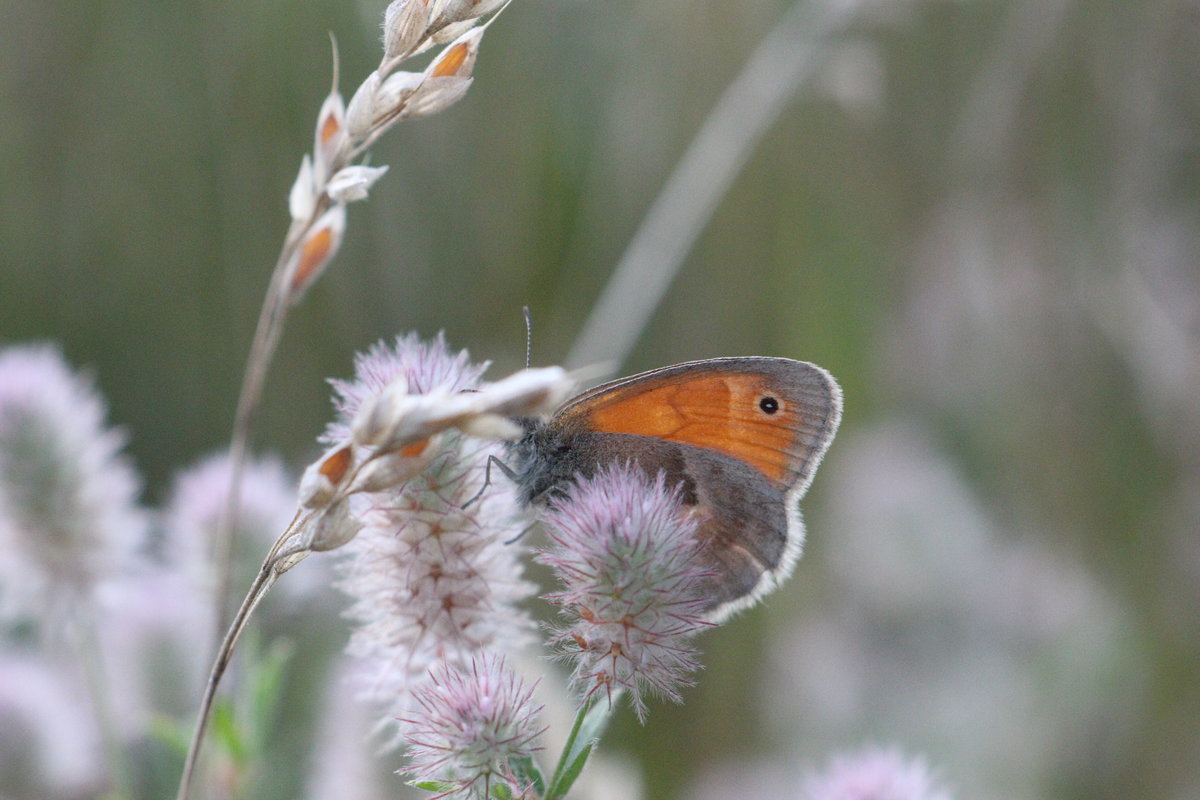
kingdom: Animalia
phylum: Arthropoda
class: Insecta
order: Lepidoptera
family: Nymphalidae
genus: Coenonympha
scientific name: Coenonympha pamphilus
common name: Small heath
